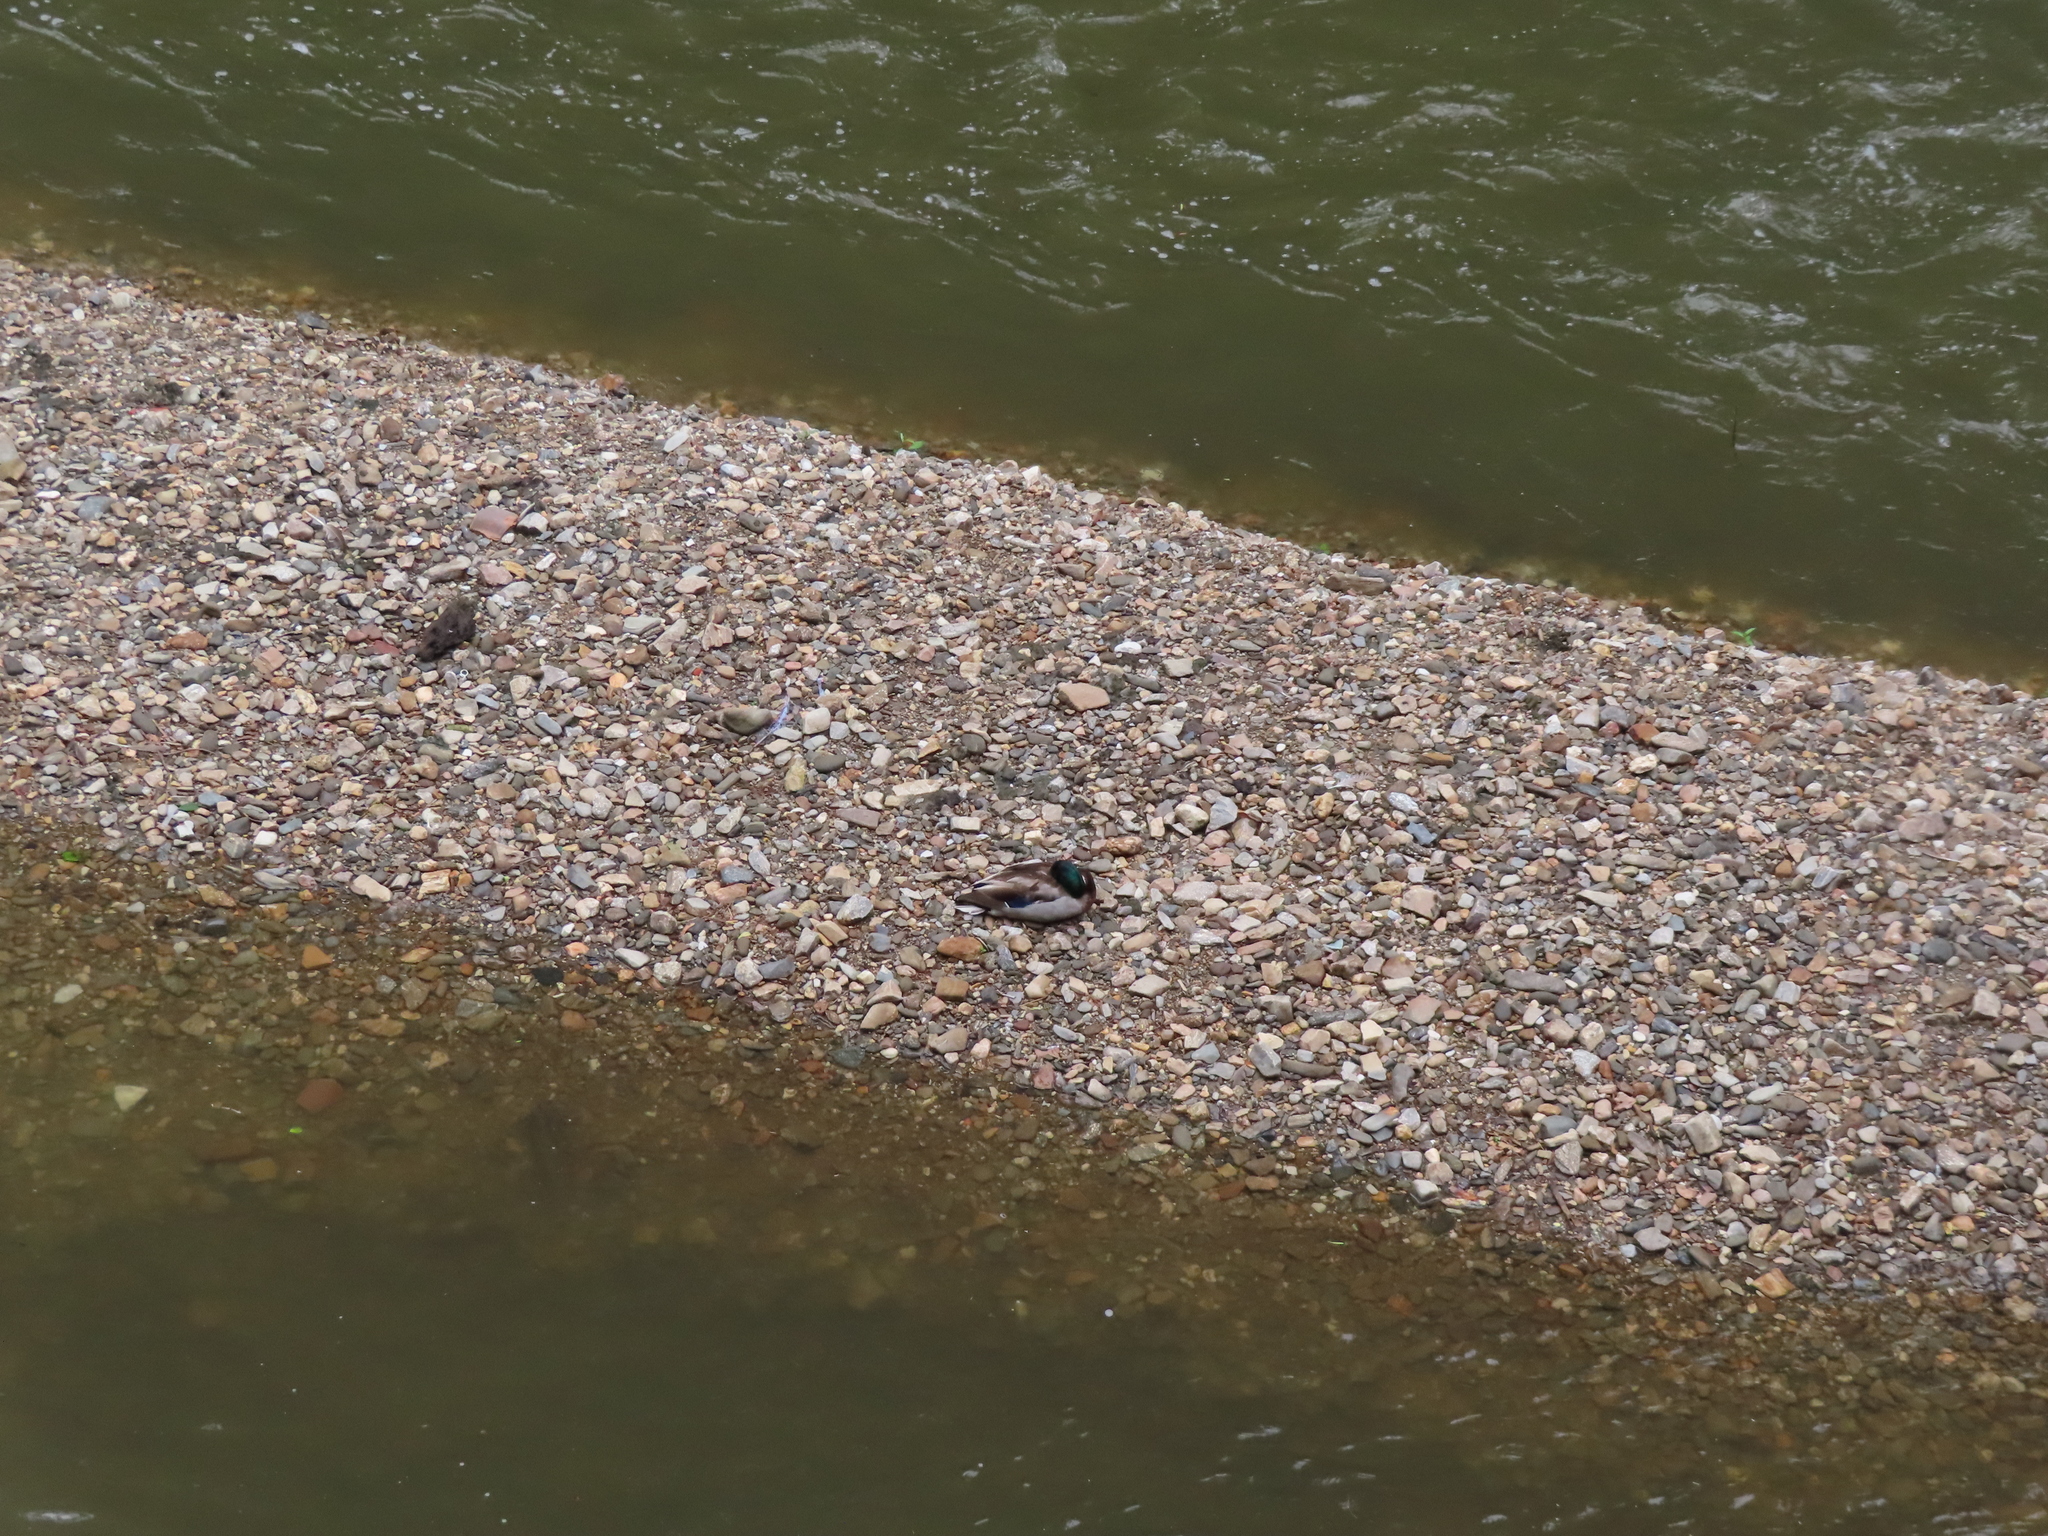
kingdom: Animalia
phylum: Chordata
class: Aves
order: Anseriformes
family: Anatidae
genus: Anas
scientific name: Anas platyrhynchos
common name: Mallard
